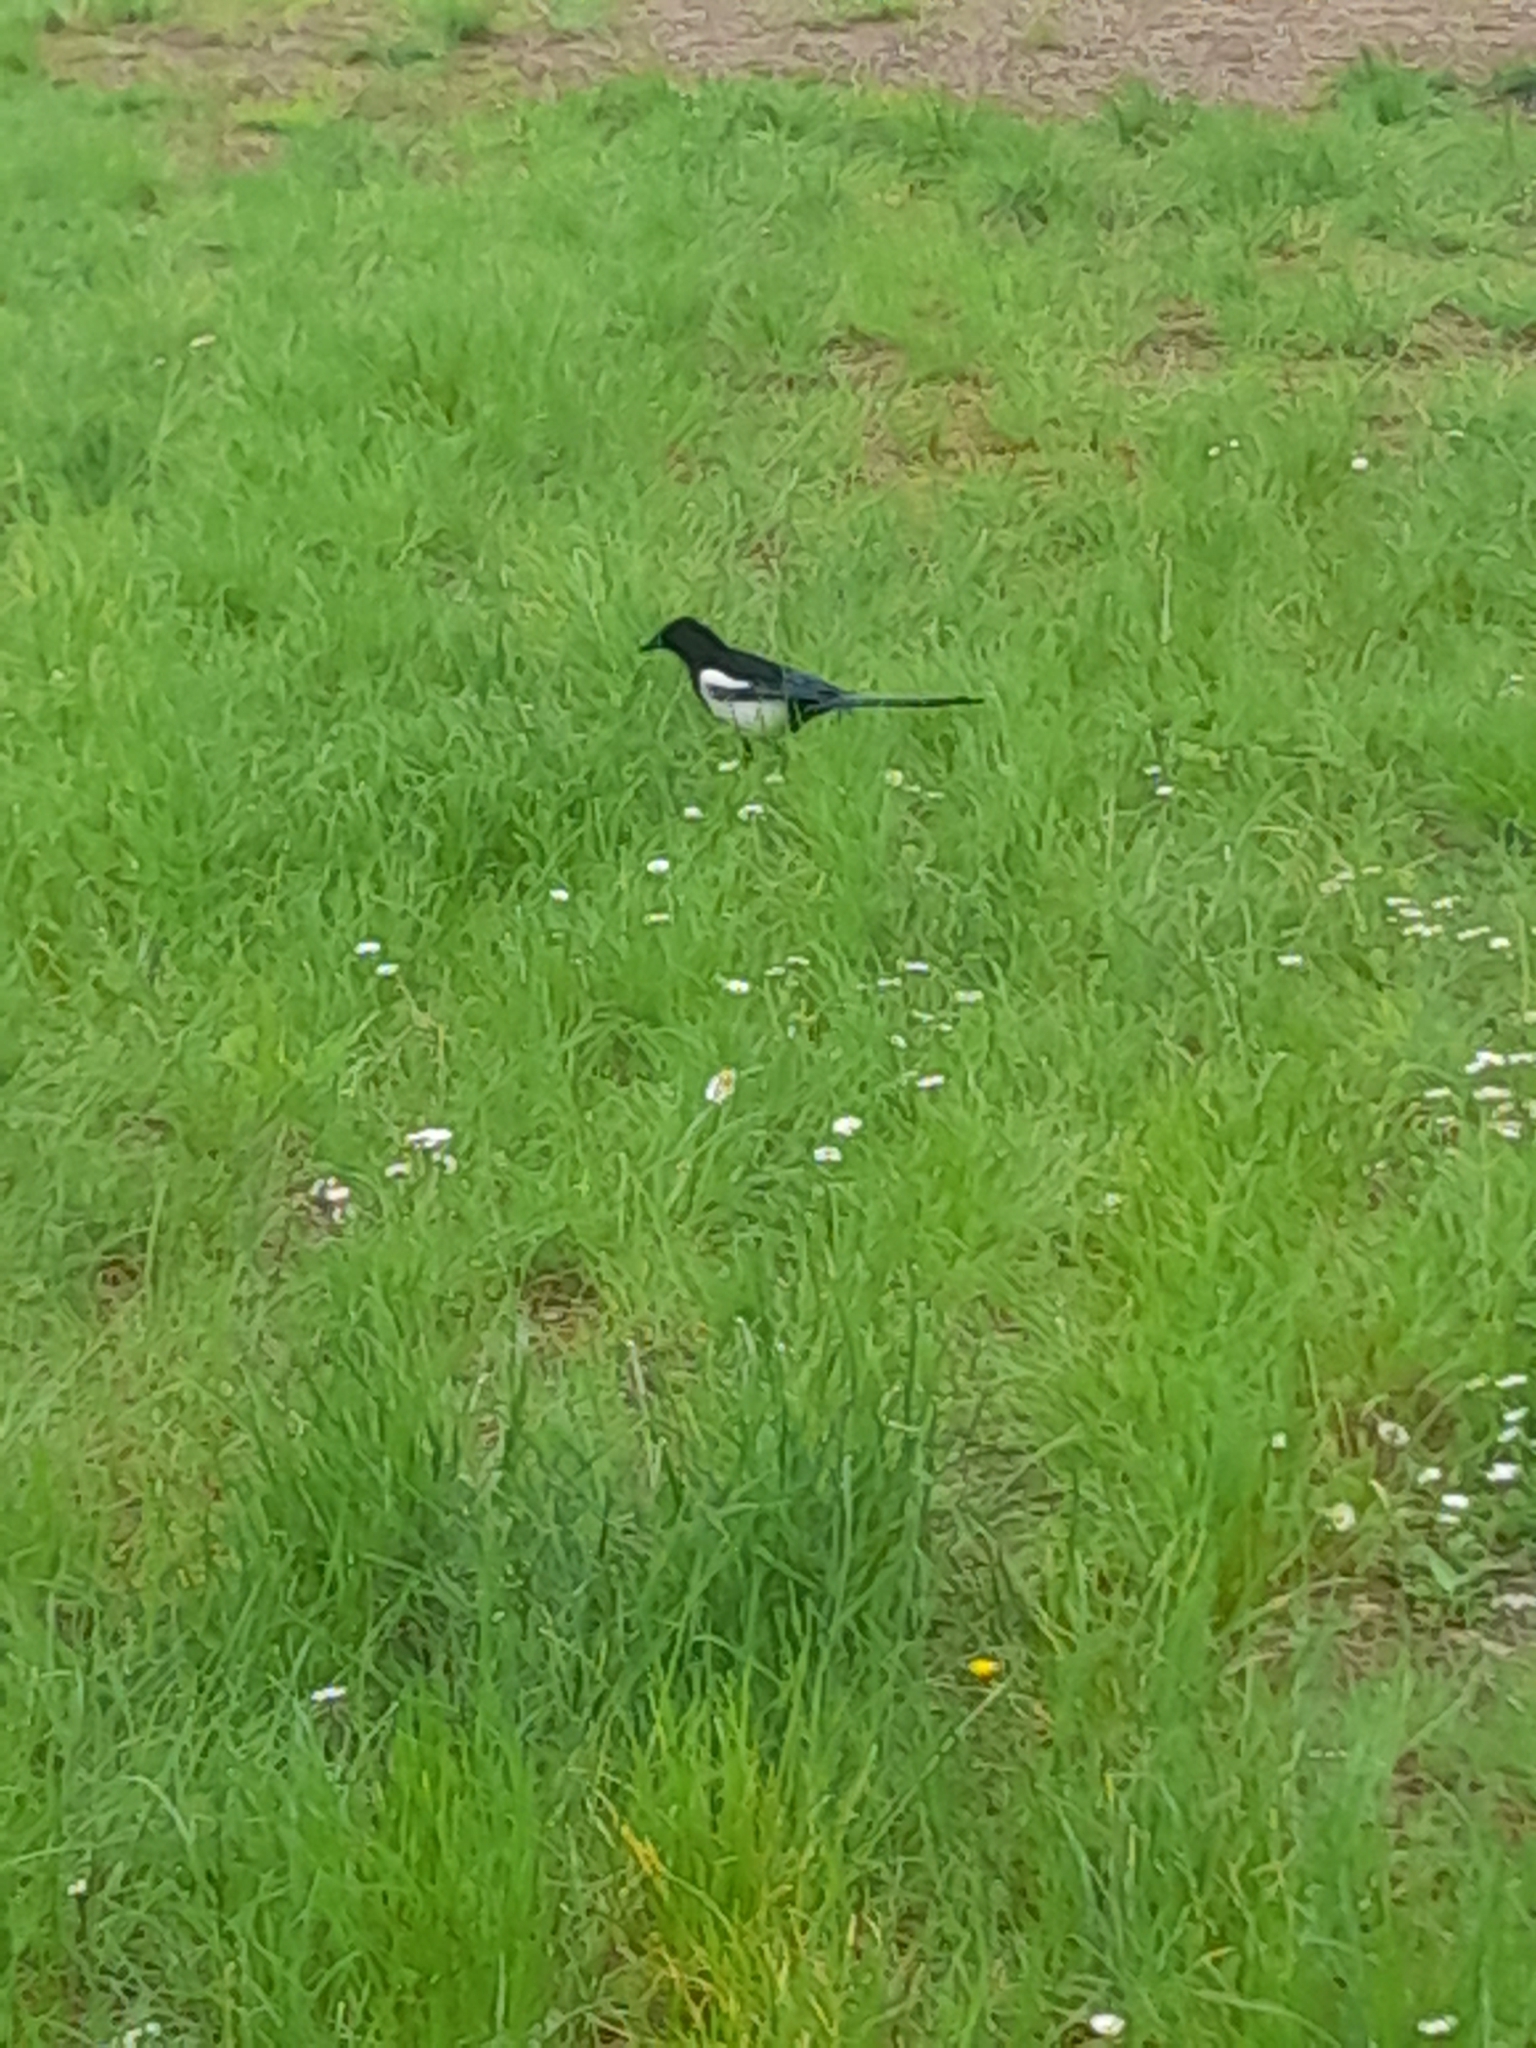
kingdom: Animalia
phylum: Chordata
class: Aves
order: Passeriformes
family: Corvidae
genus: Pica
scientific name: Pica pica
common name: Eurasian magpie
